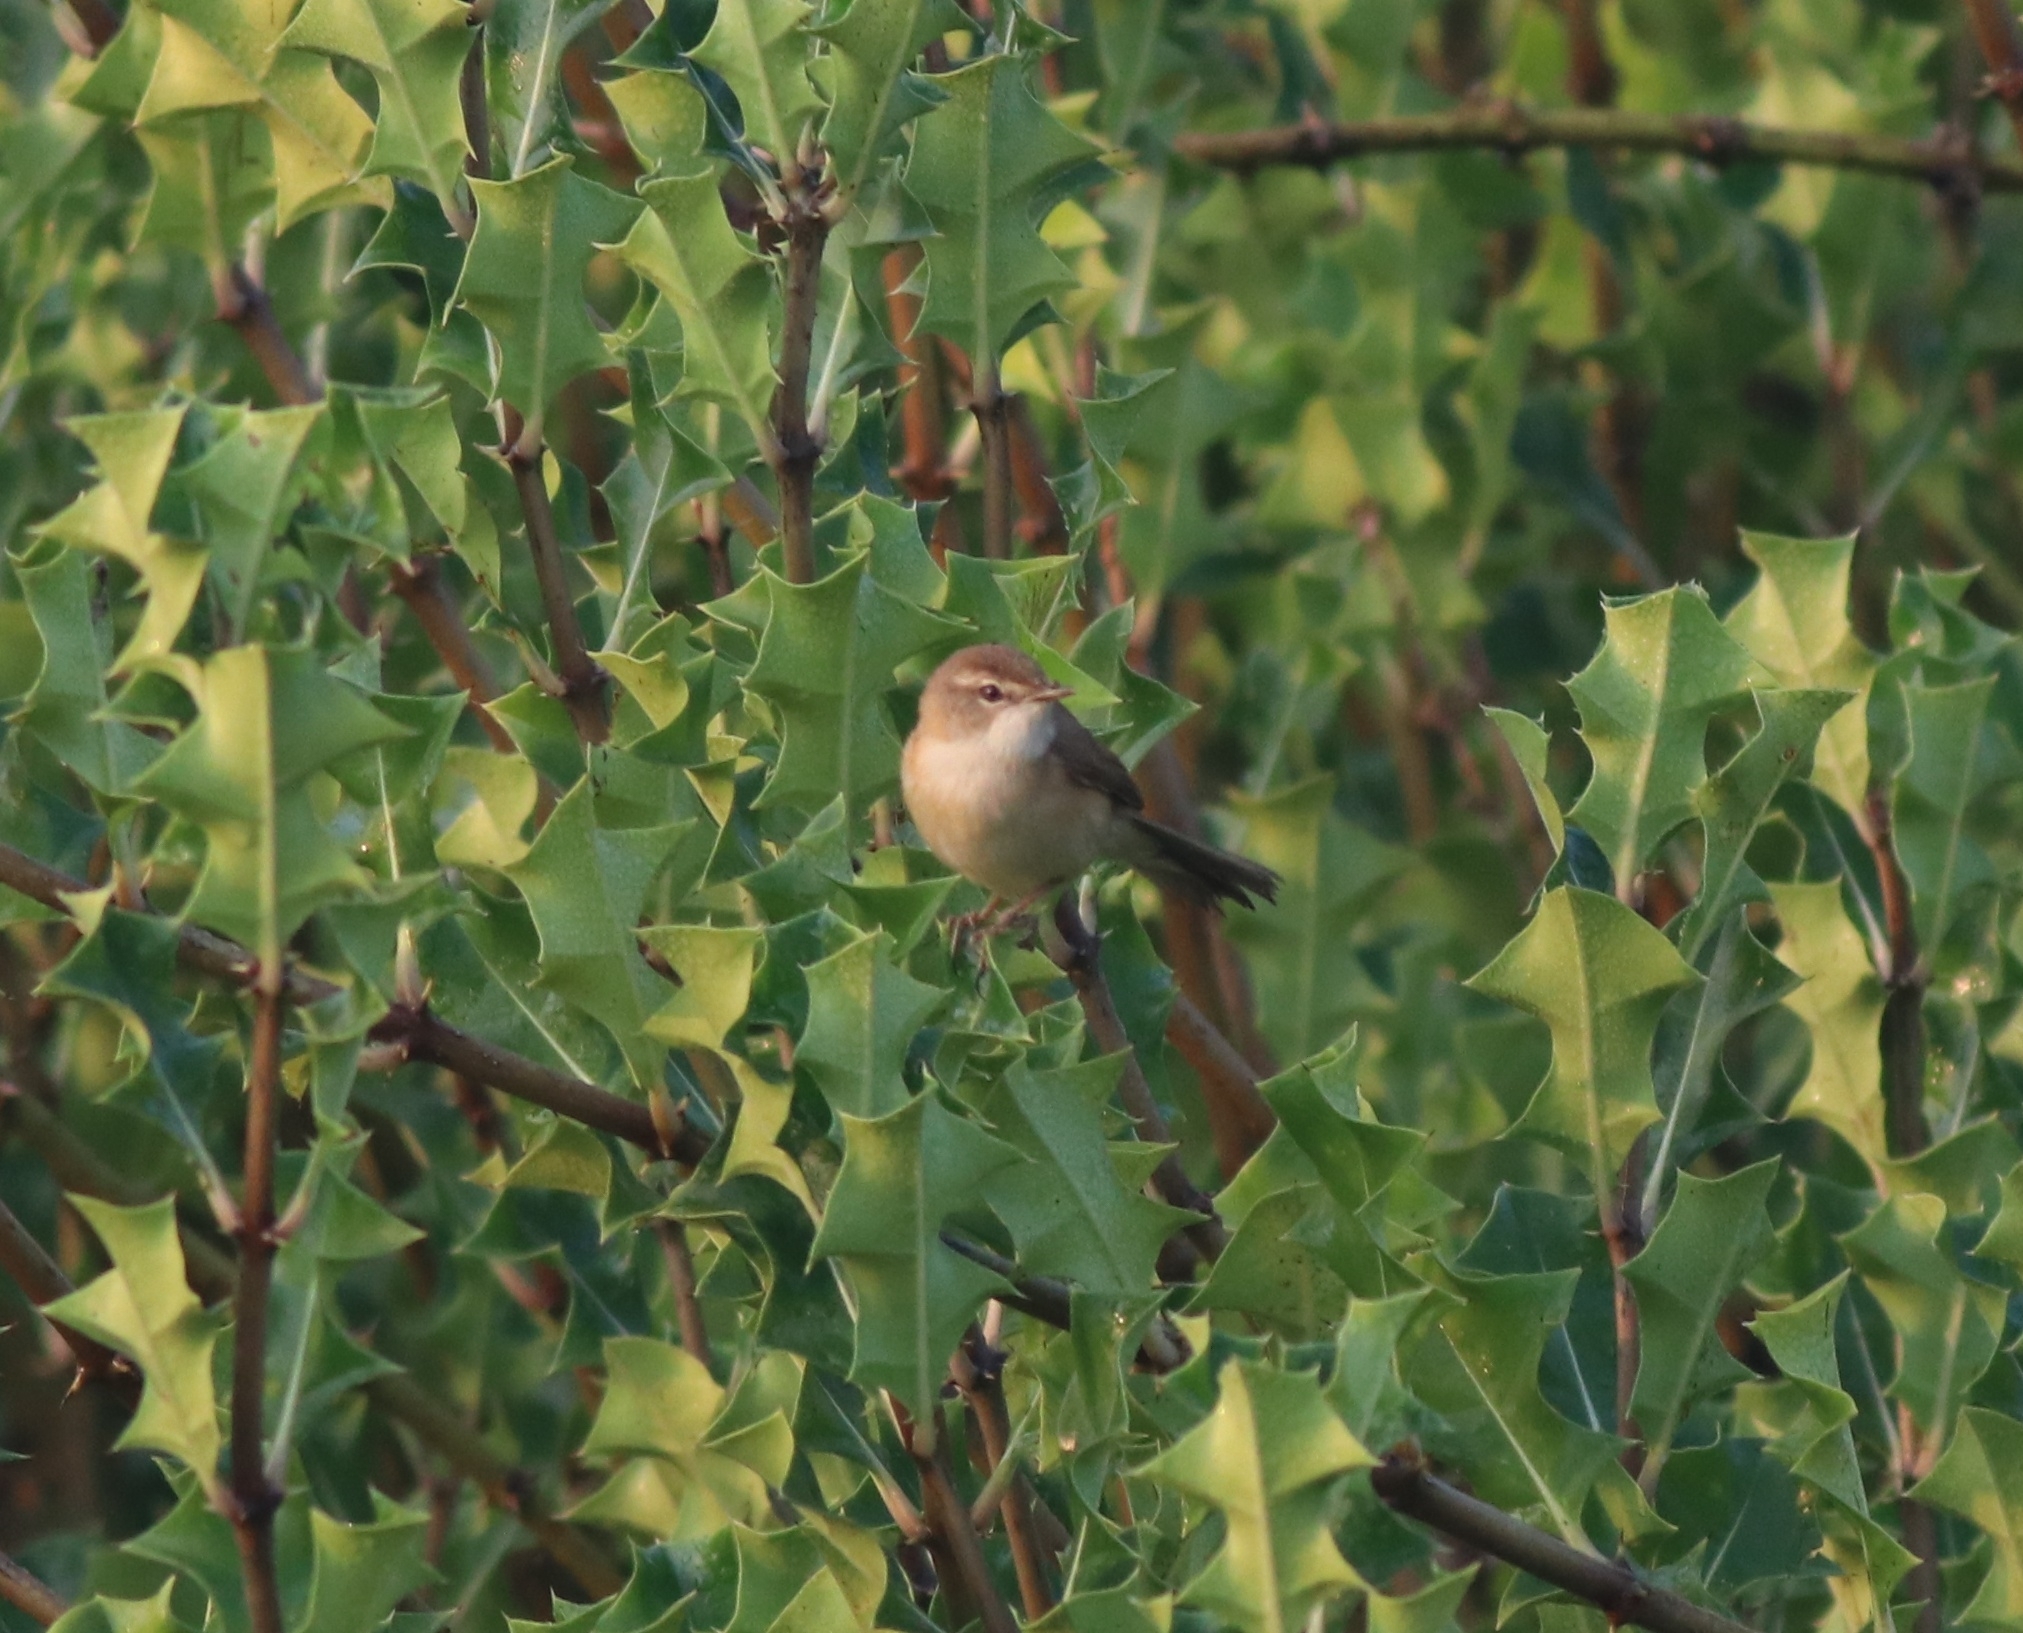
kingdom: Animalia
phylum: Chordata
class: Aves
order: Passeriformes
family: Acrocephalidae
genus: Acrocephalus
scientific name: Acrocephalus agricola
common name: Paddyfield warbler
